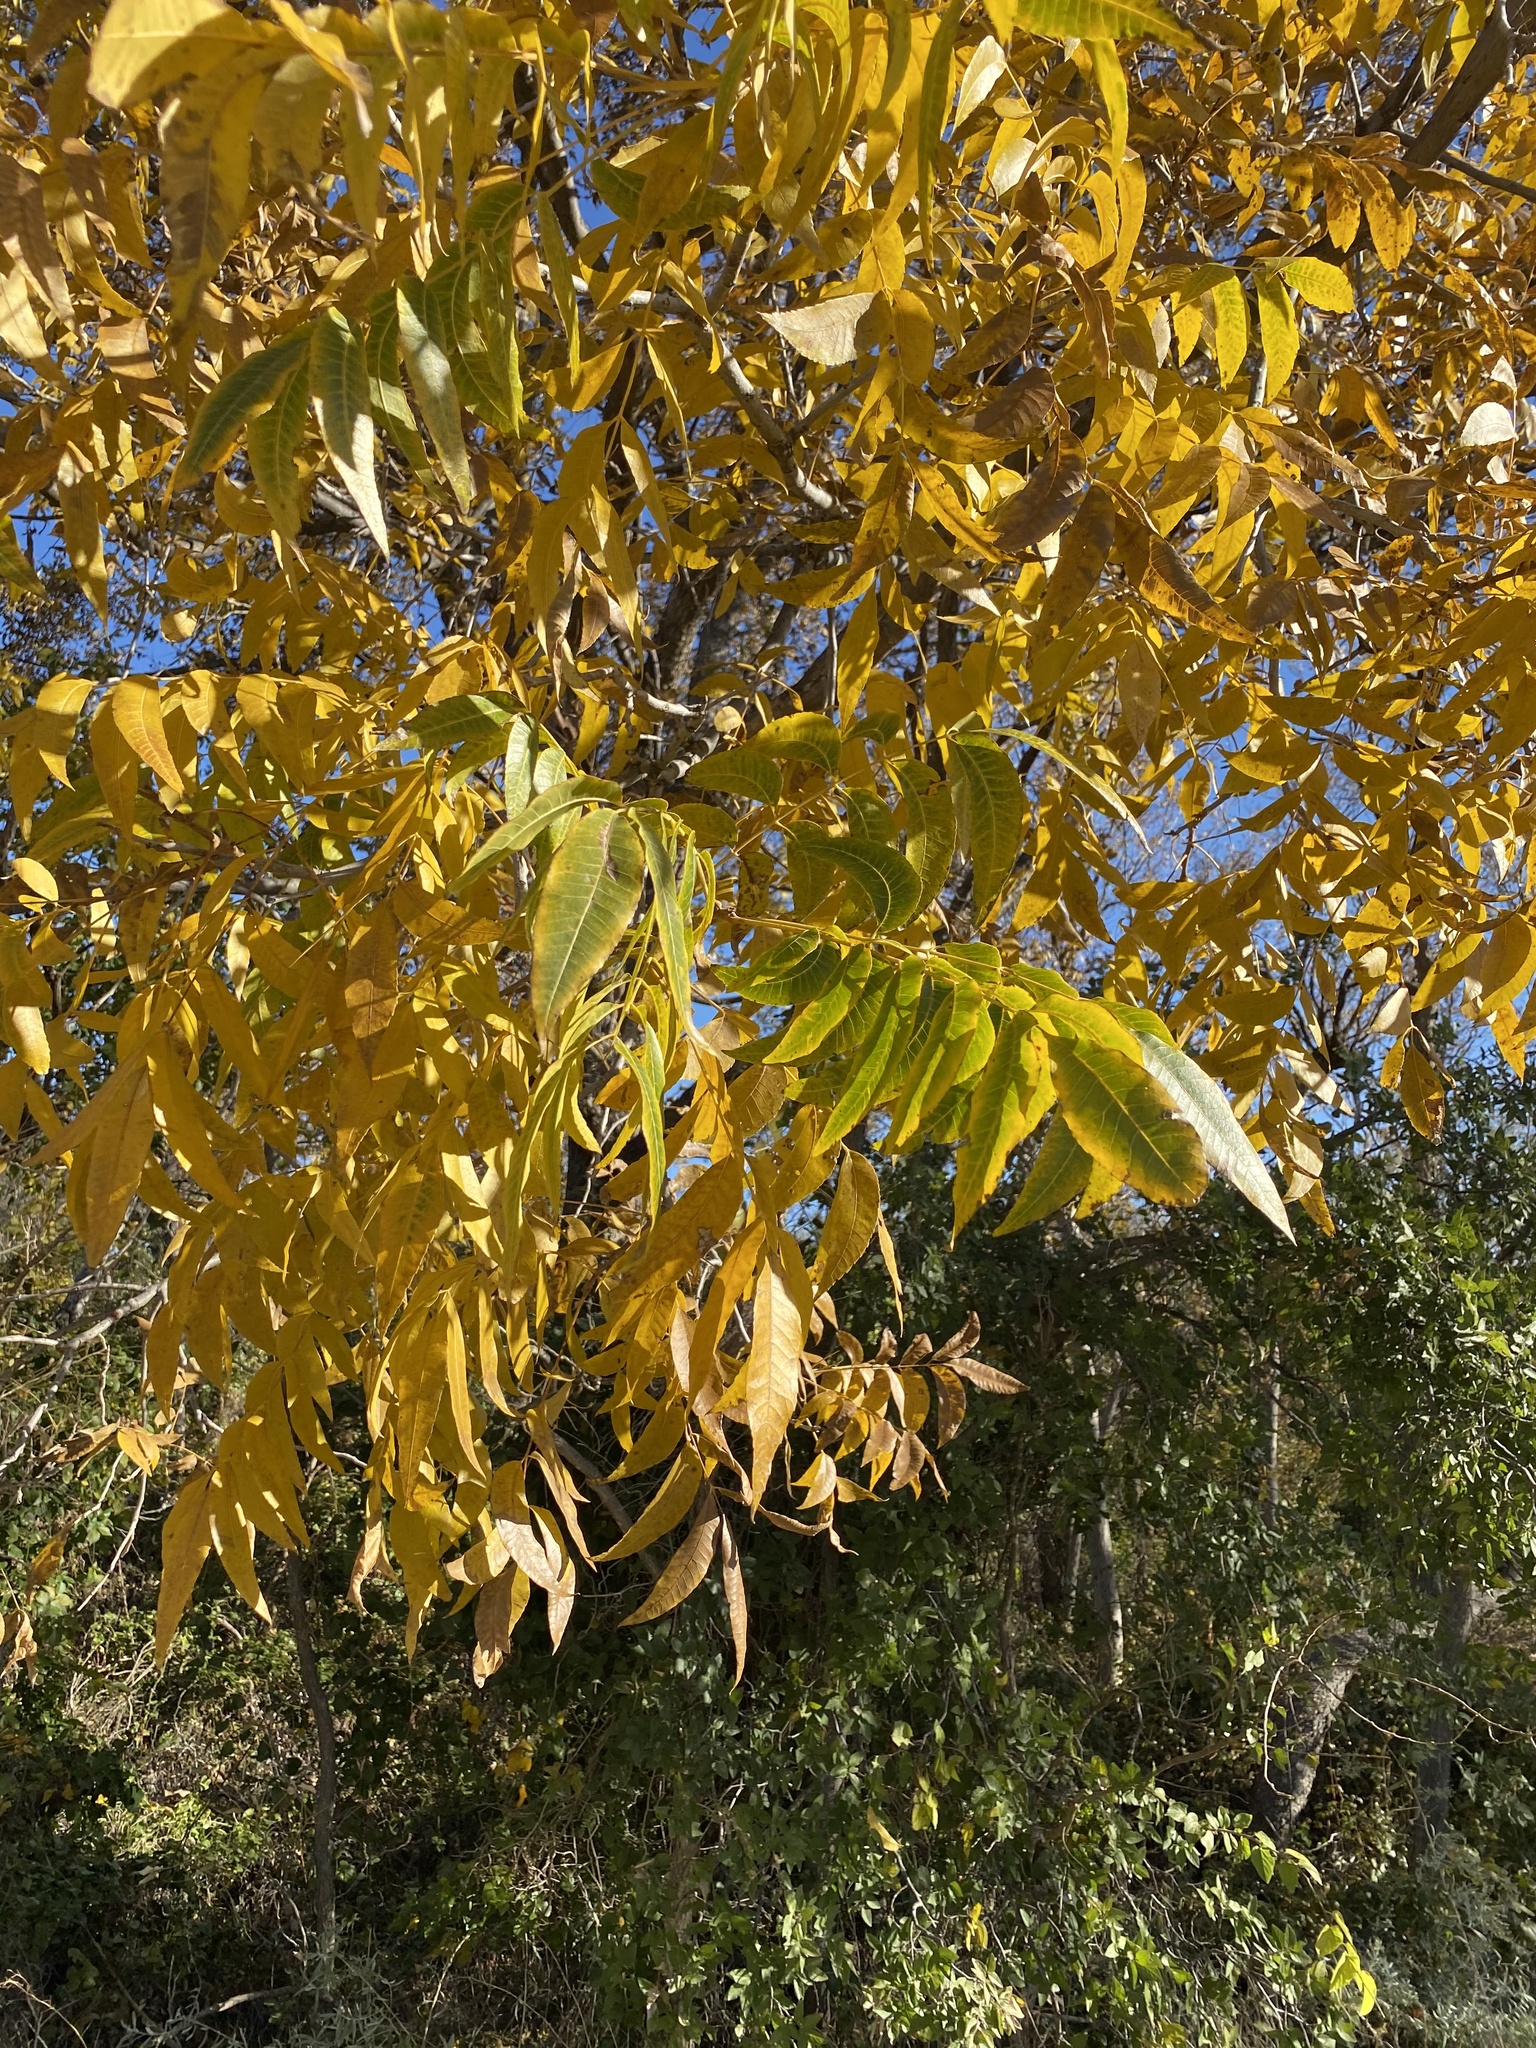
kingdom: Plantae
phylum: Tracheophyta
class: Magnoliopsida
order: Fagales
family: Juglandaceae
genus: Carya
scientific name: Carya illinoinensis
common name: Pecan
